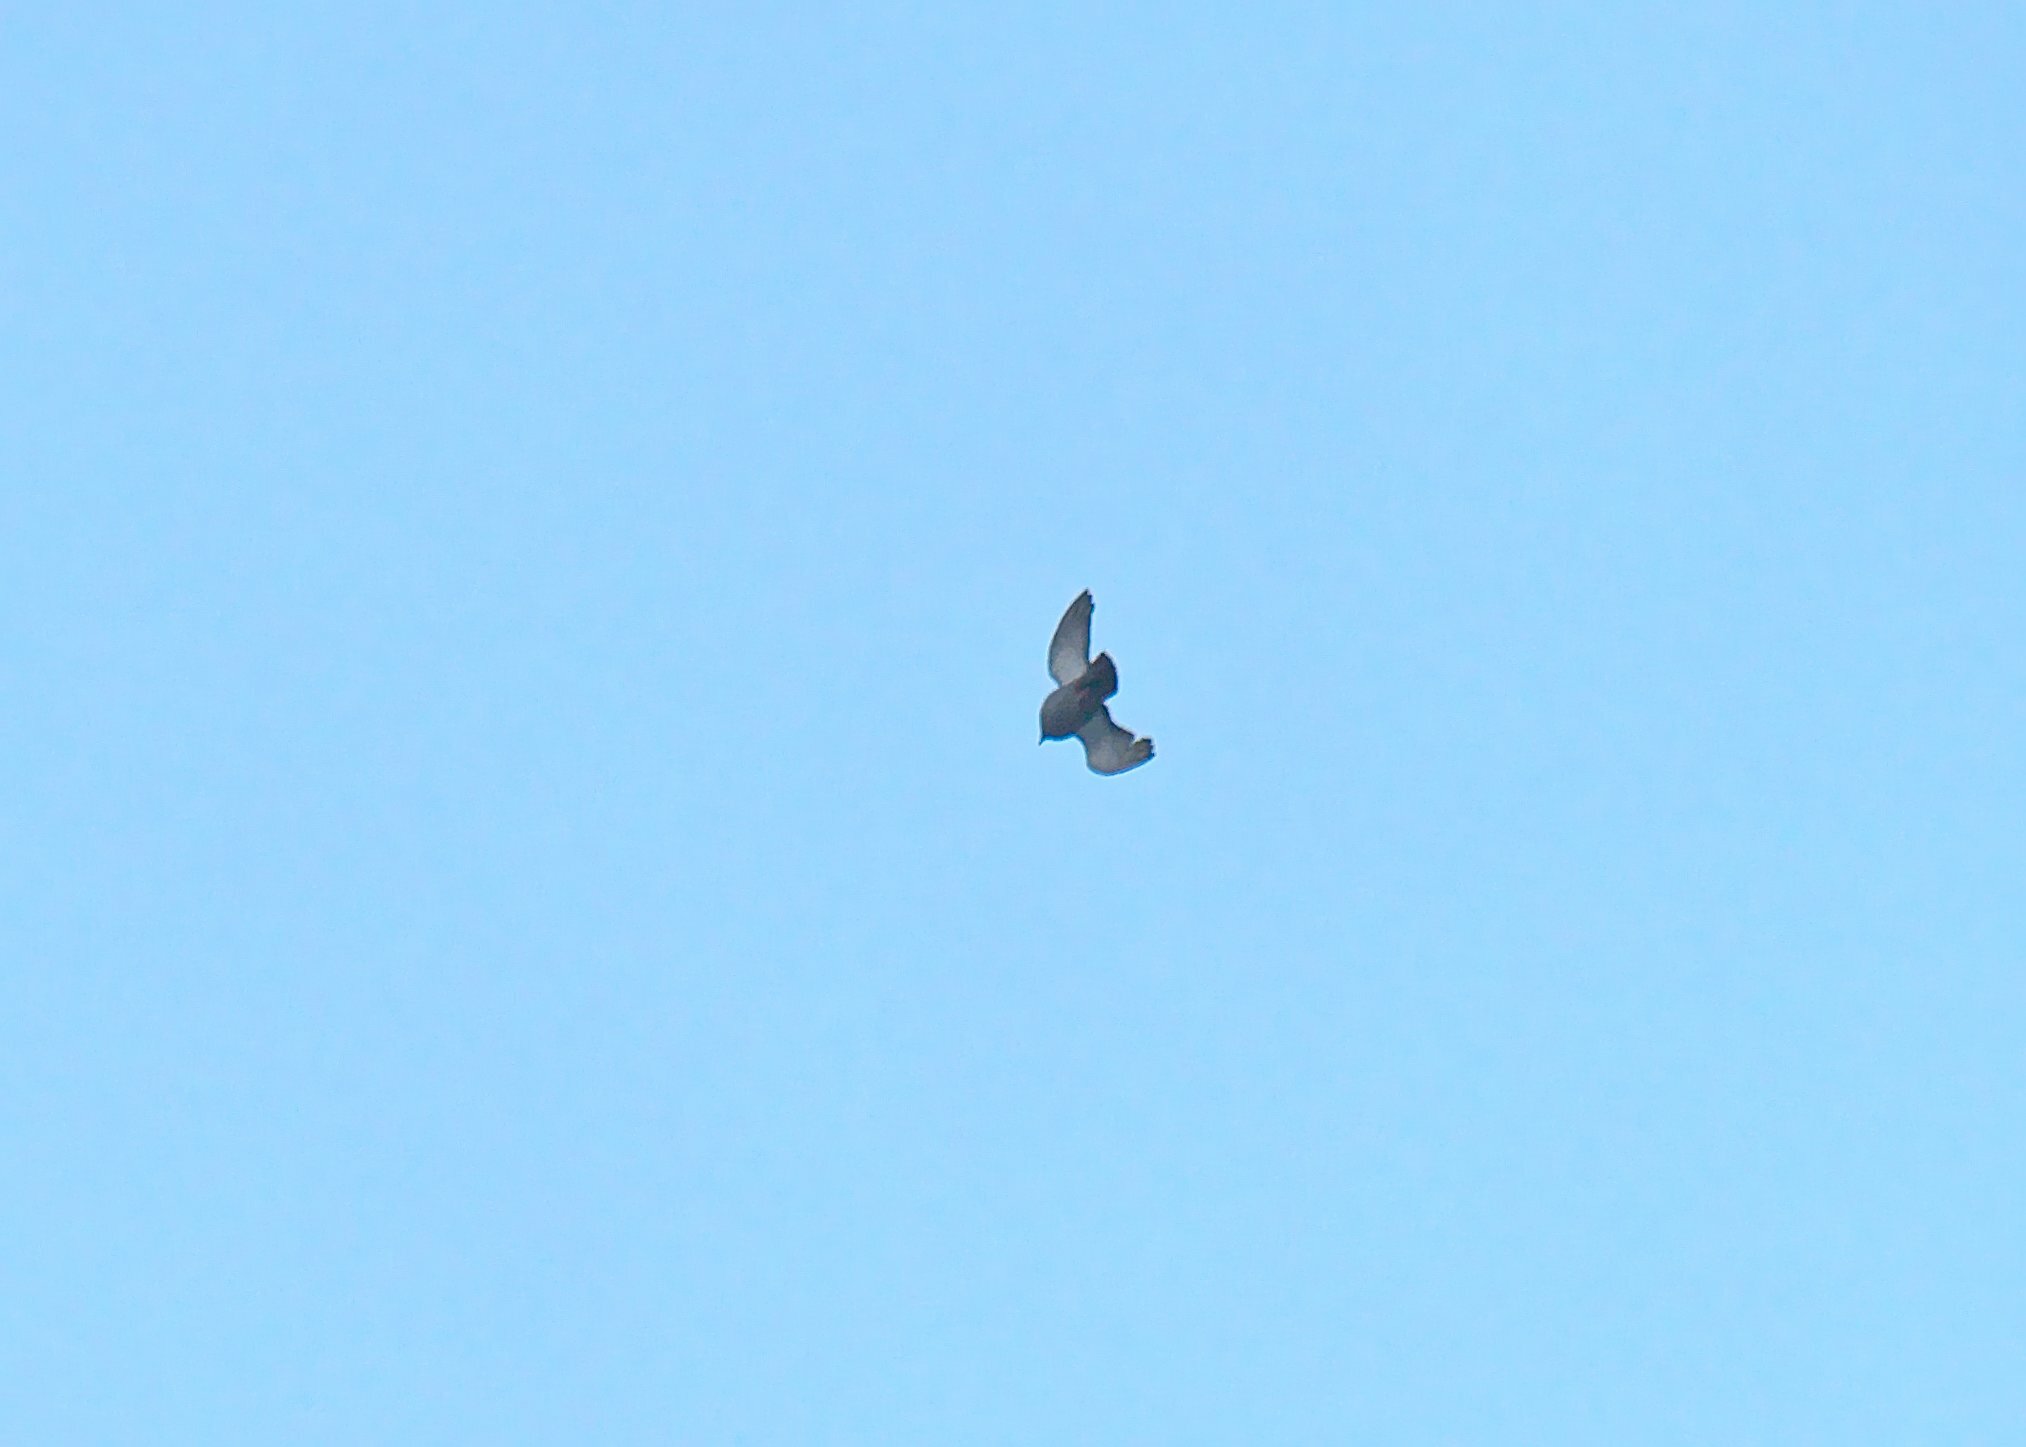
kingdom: Animalia
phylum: Chordata
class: Aves
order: Columbiformes
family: Columbidae
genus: Columba
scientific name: Columba livia
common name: Rock pigeon
